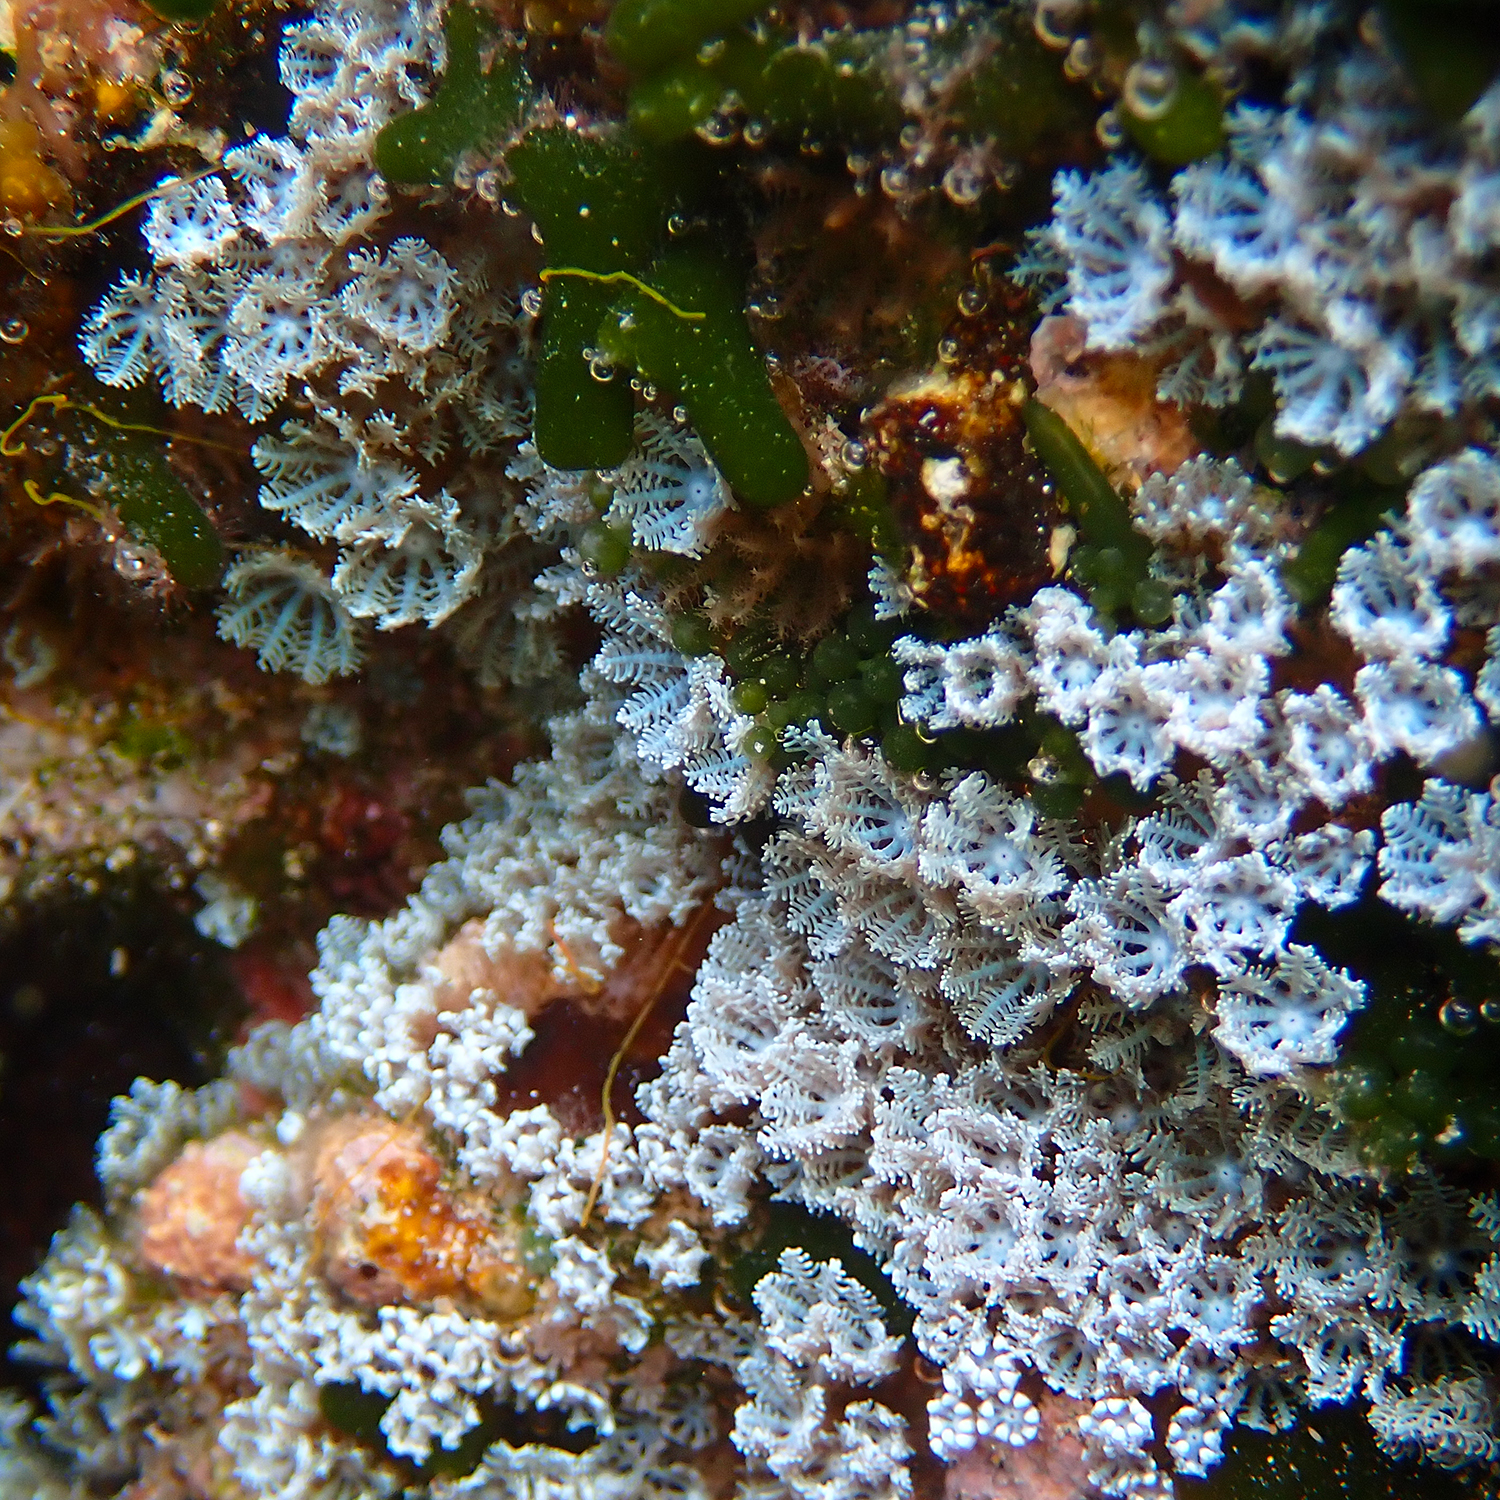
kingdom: Animalia
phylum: Cnidaria
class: Anthozoa
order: Malacalcyonacea
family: Xeniidae
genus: Sarcothelia
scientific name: Sarcothelia edmondsoni
